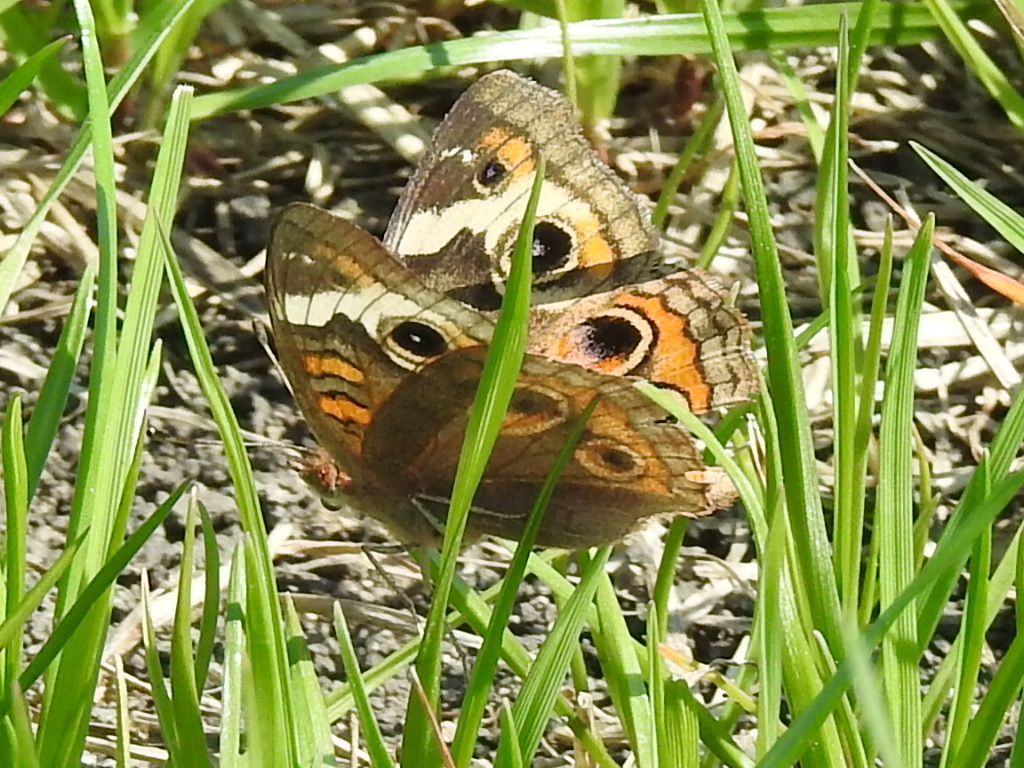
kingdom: Animalia
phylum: Arthropoda
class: Insecta
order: Lepidoptera
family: Nymphalidae
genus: Junonia
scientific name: Junonia coenia
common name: Common buckeye
